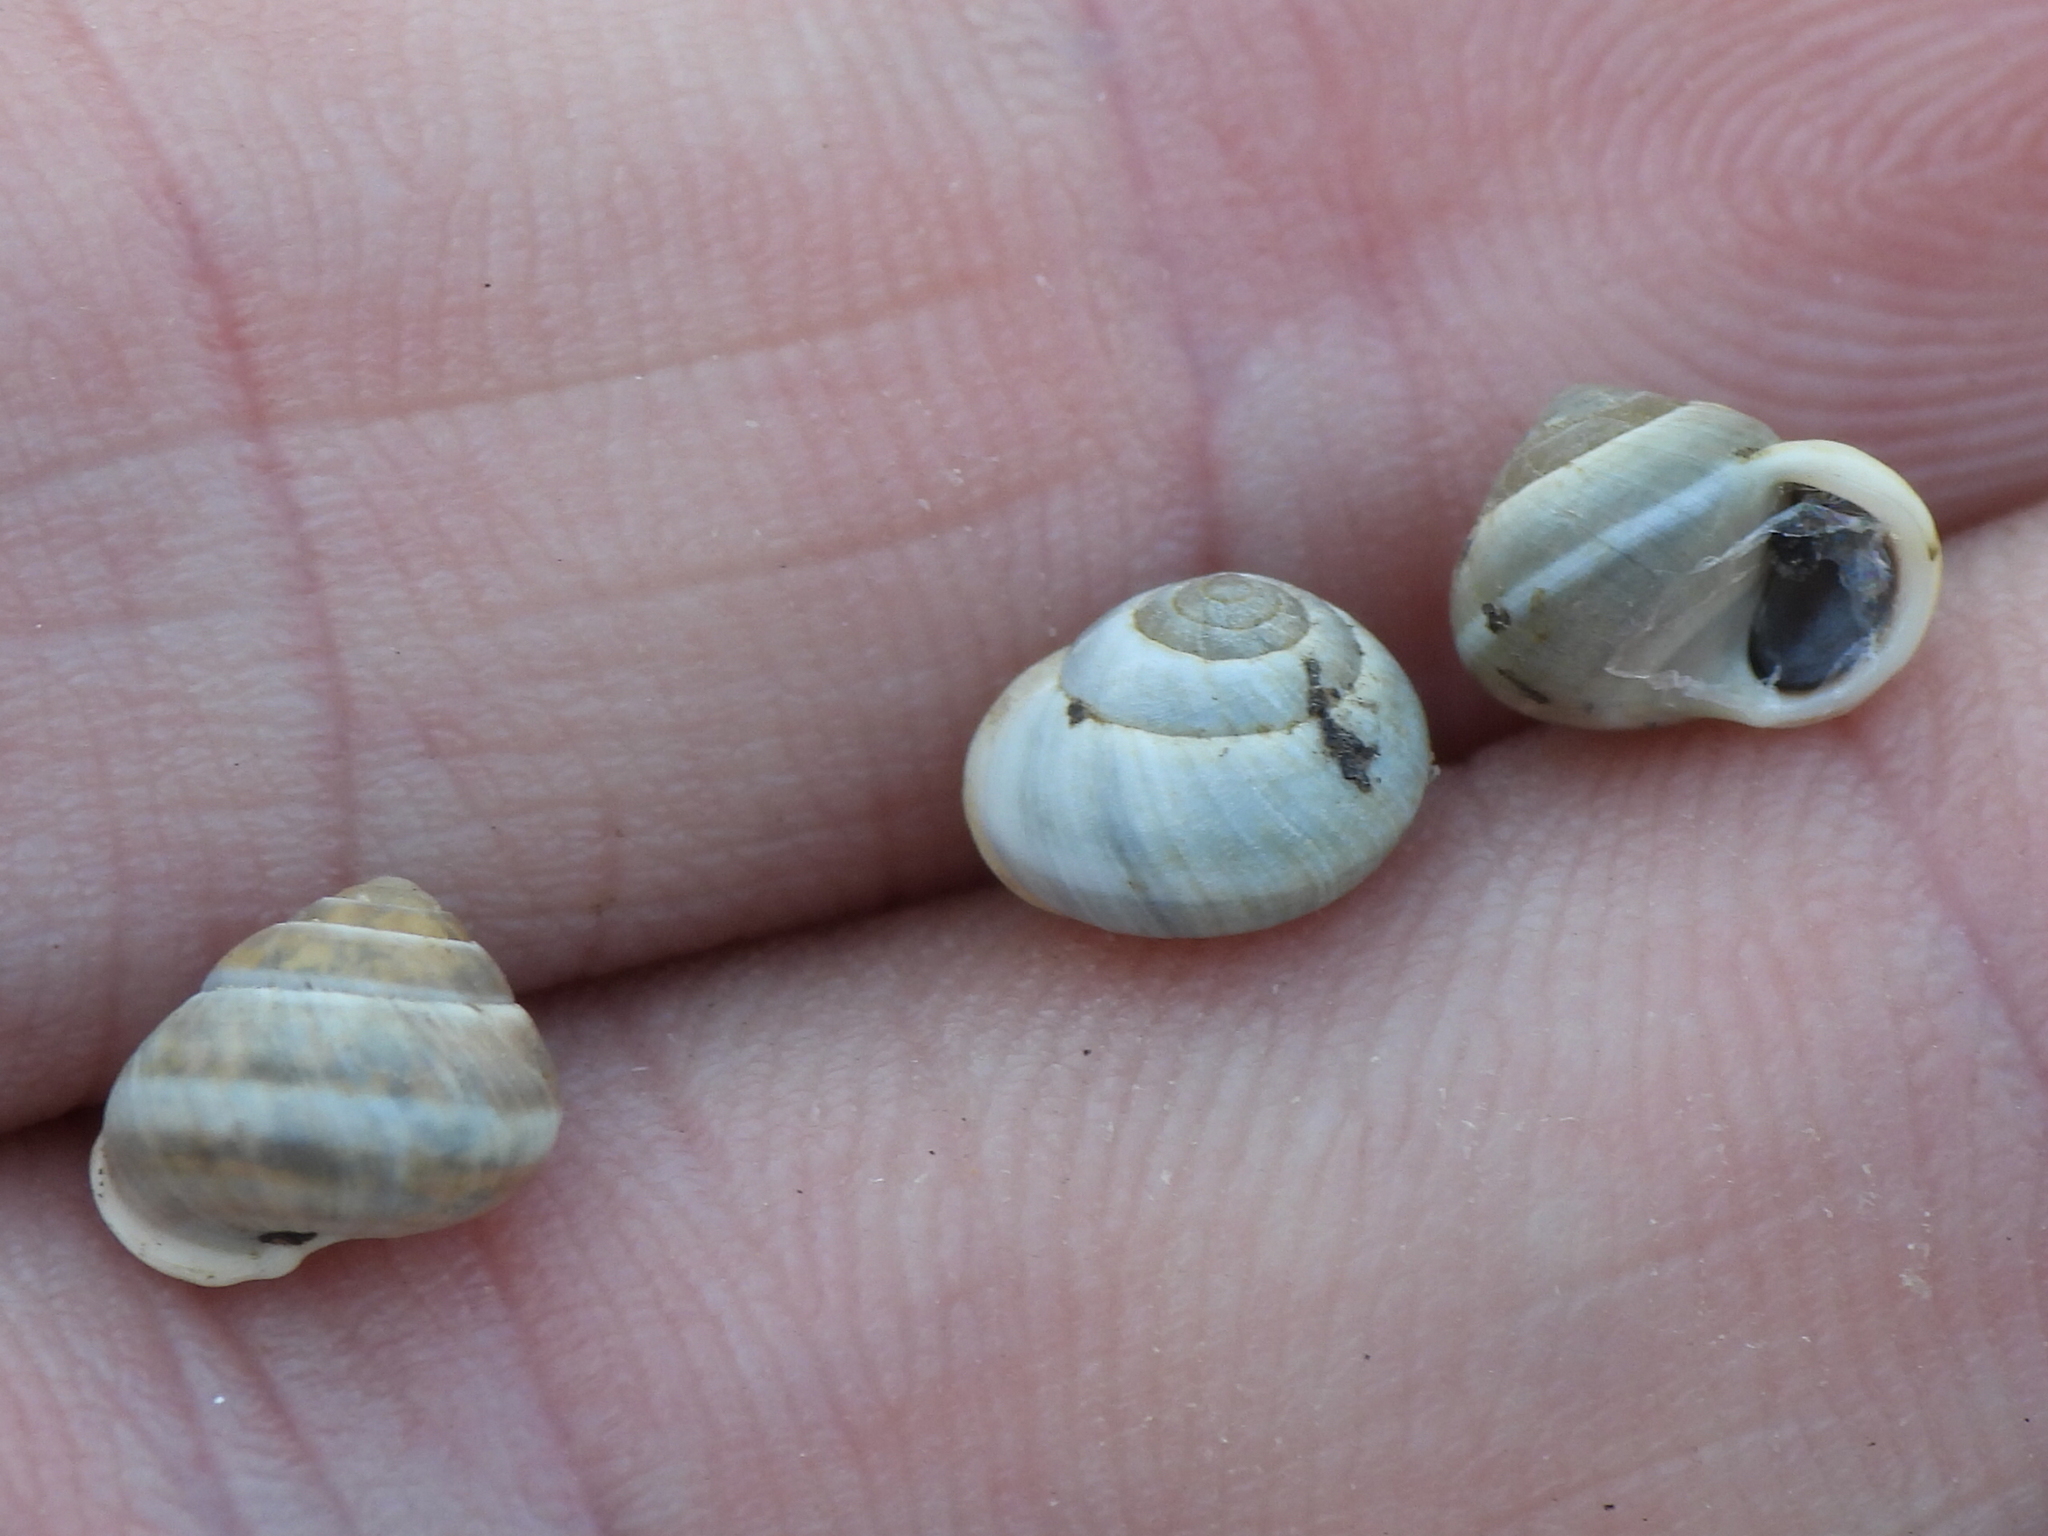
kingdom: Animalia
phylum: Mollusca
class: Gastropoda
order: Cycloneritida
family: Helicinidae
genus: Helicina
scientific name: Helicina orbiculata
